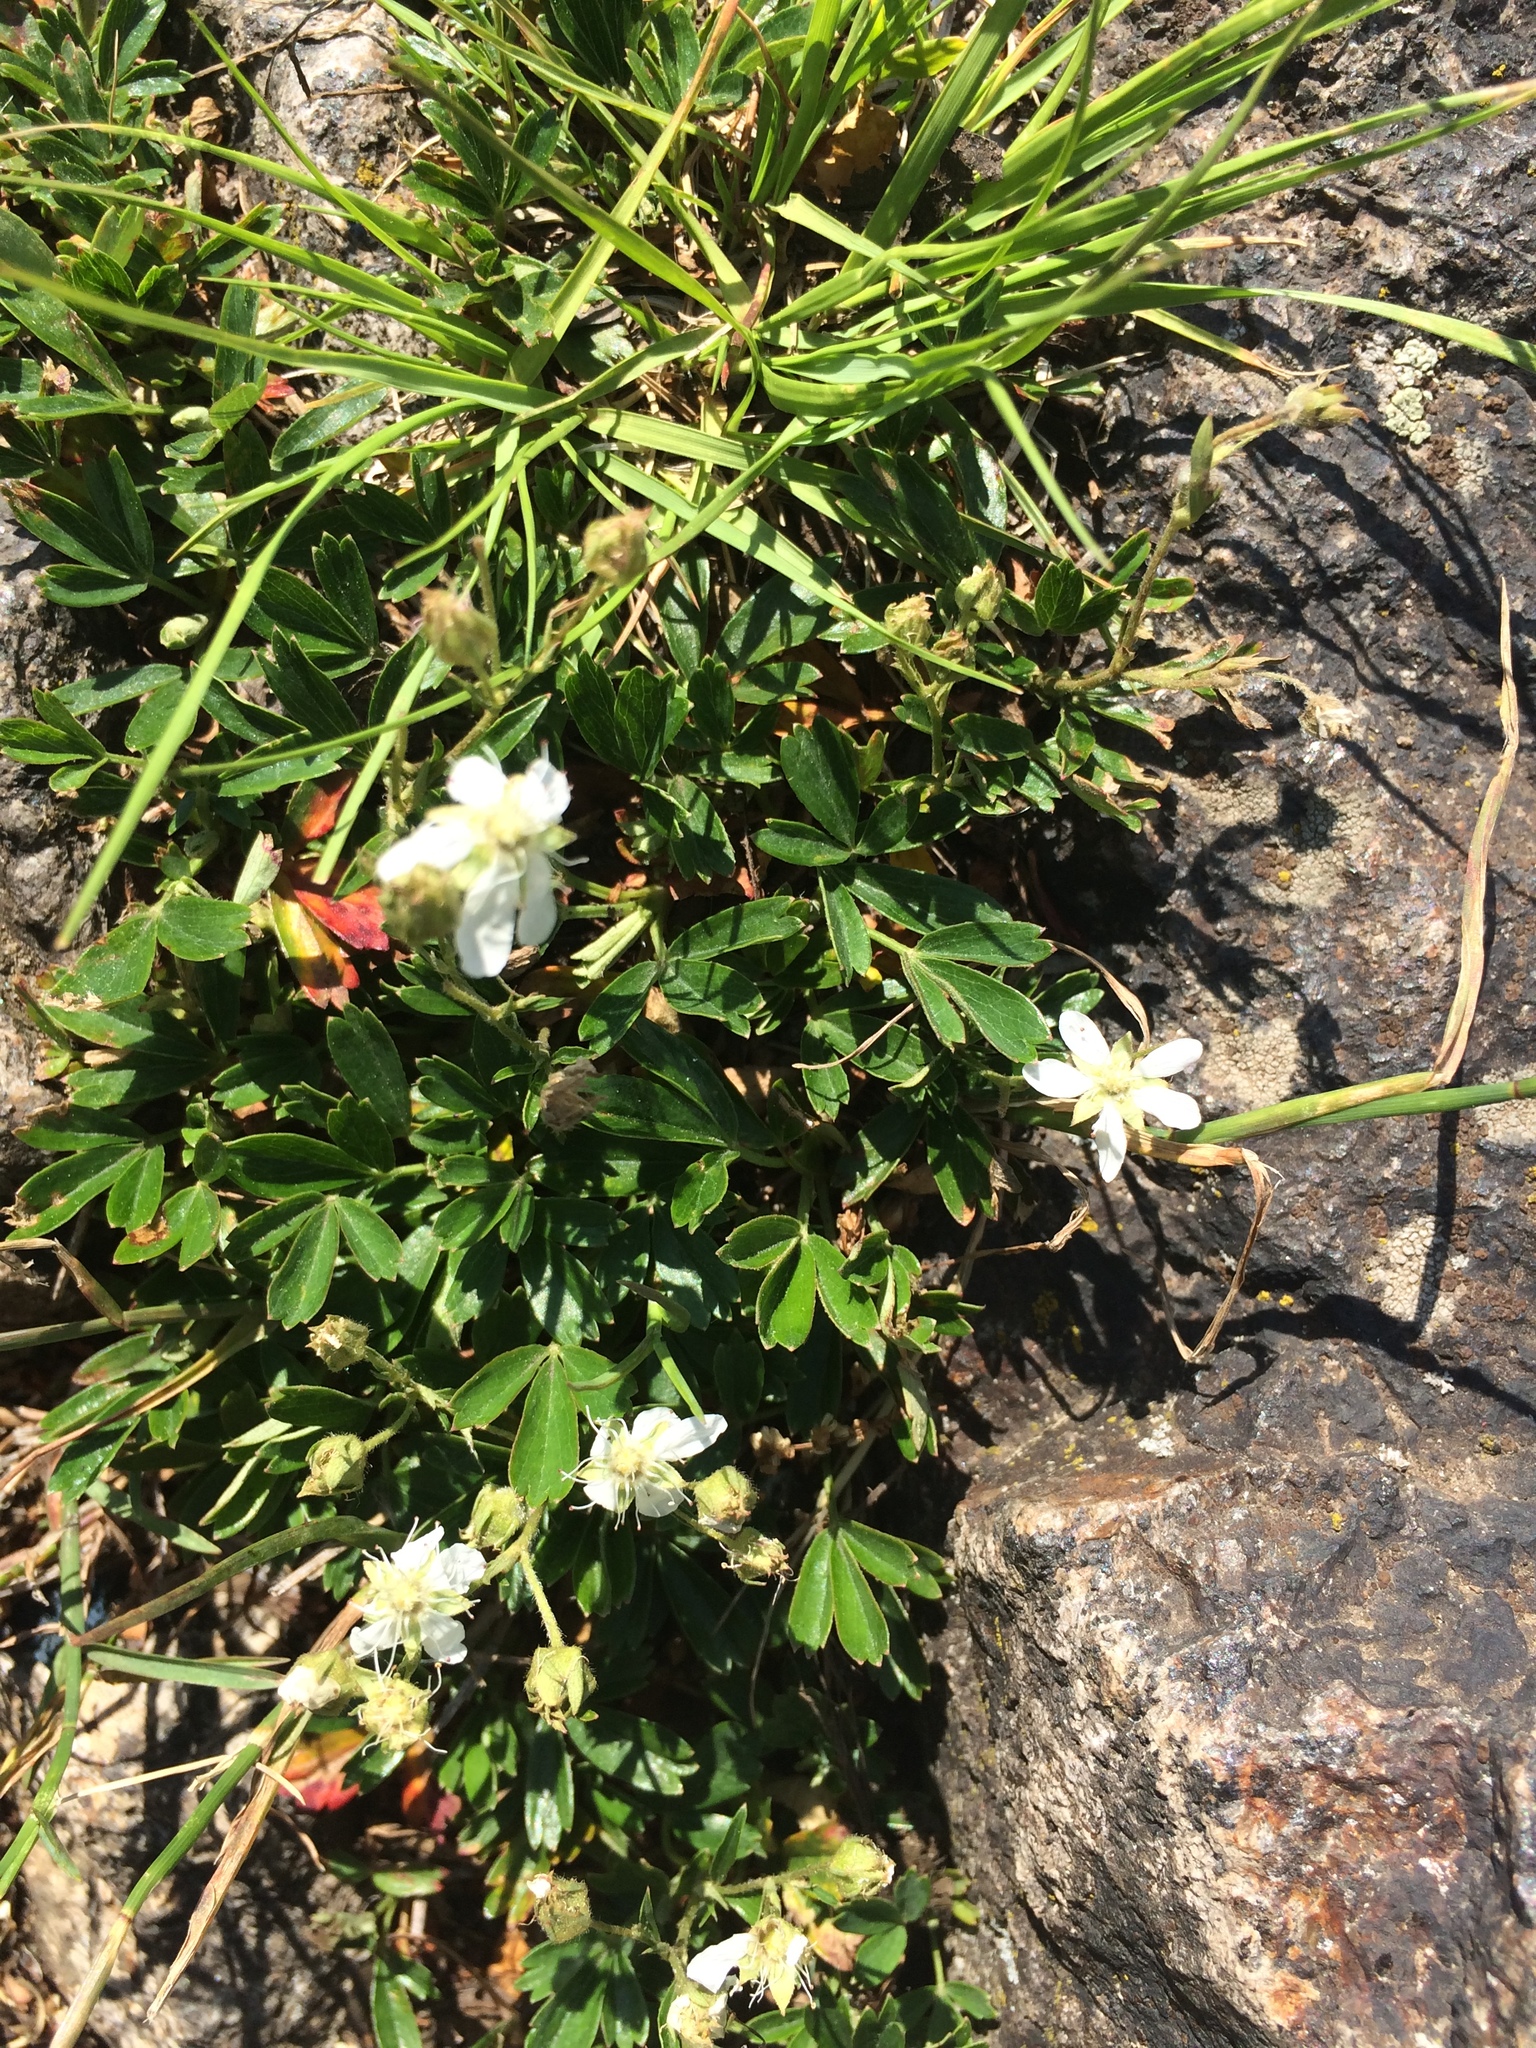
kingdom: Plantae
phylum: Tracheophyta
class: Magnoliopsida
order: Rosales
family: Rosaceae
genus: Sibbaldia
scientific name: Sibbaldia tridentata
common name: Three-toothed cinquefoil
